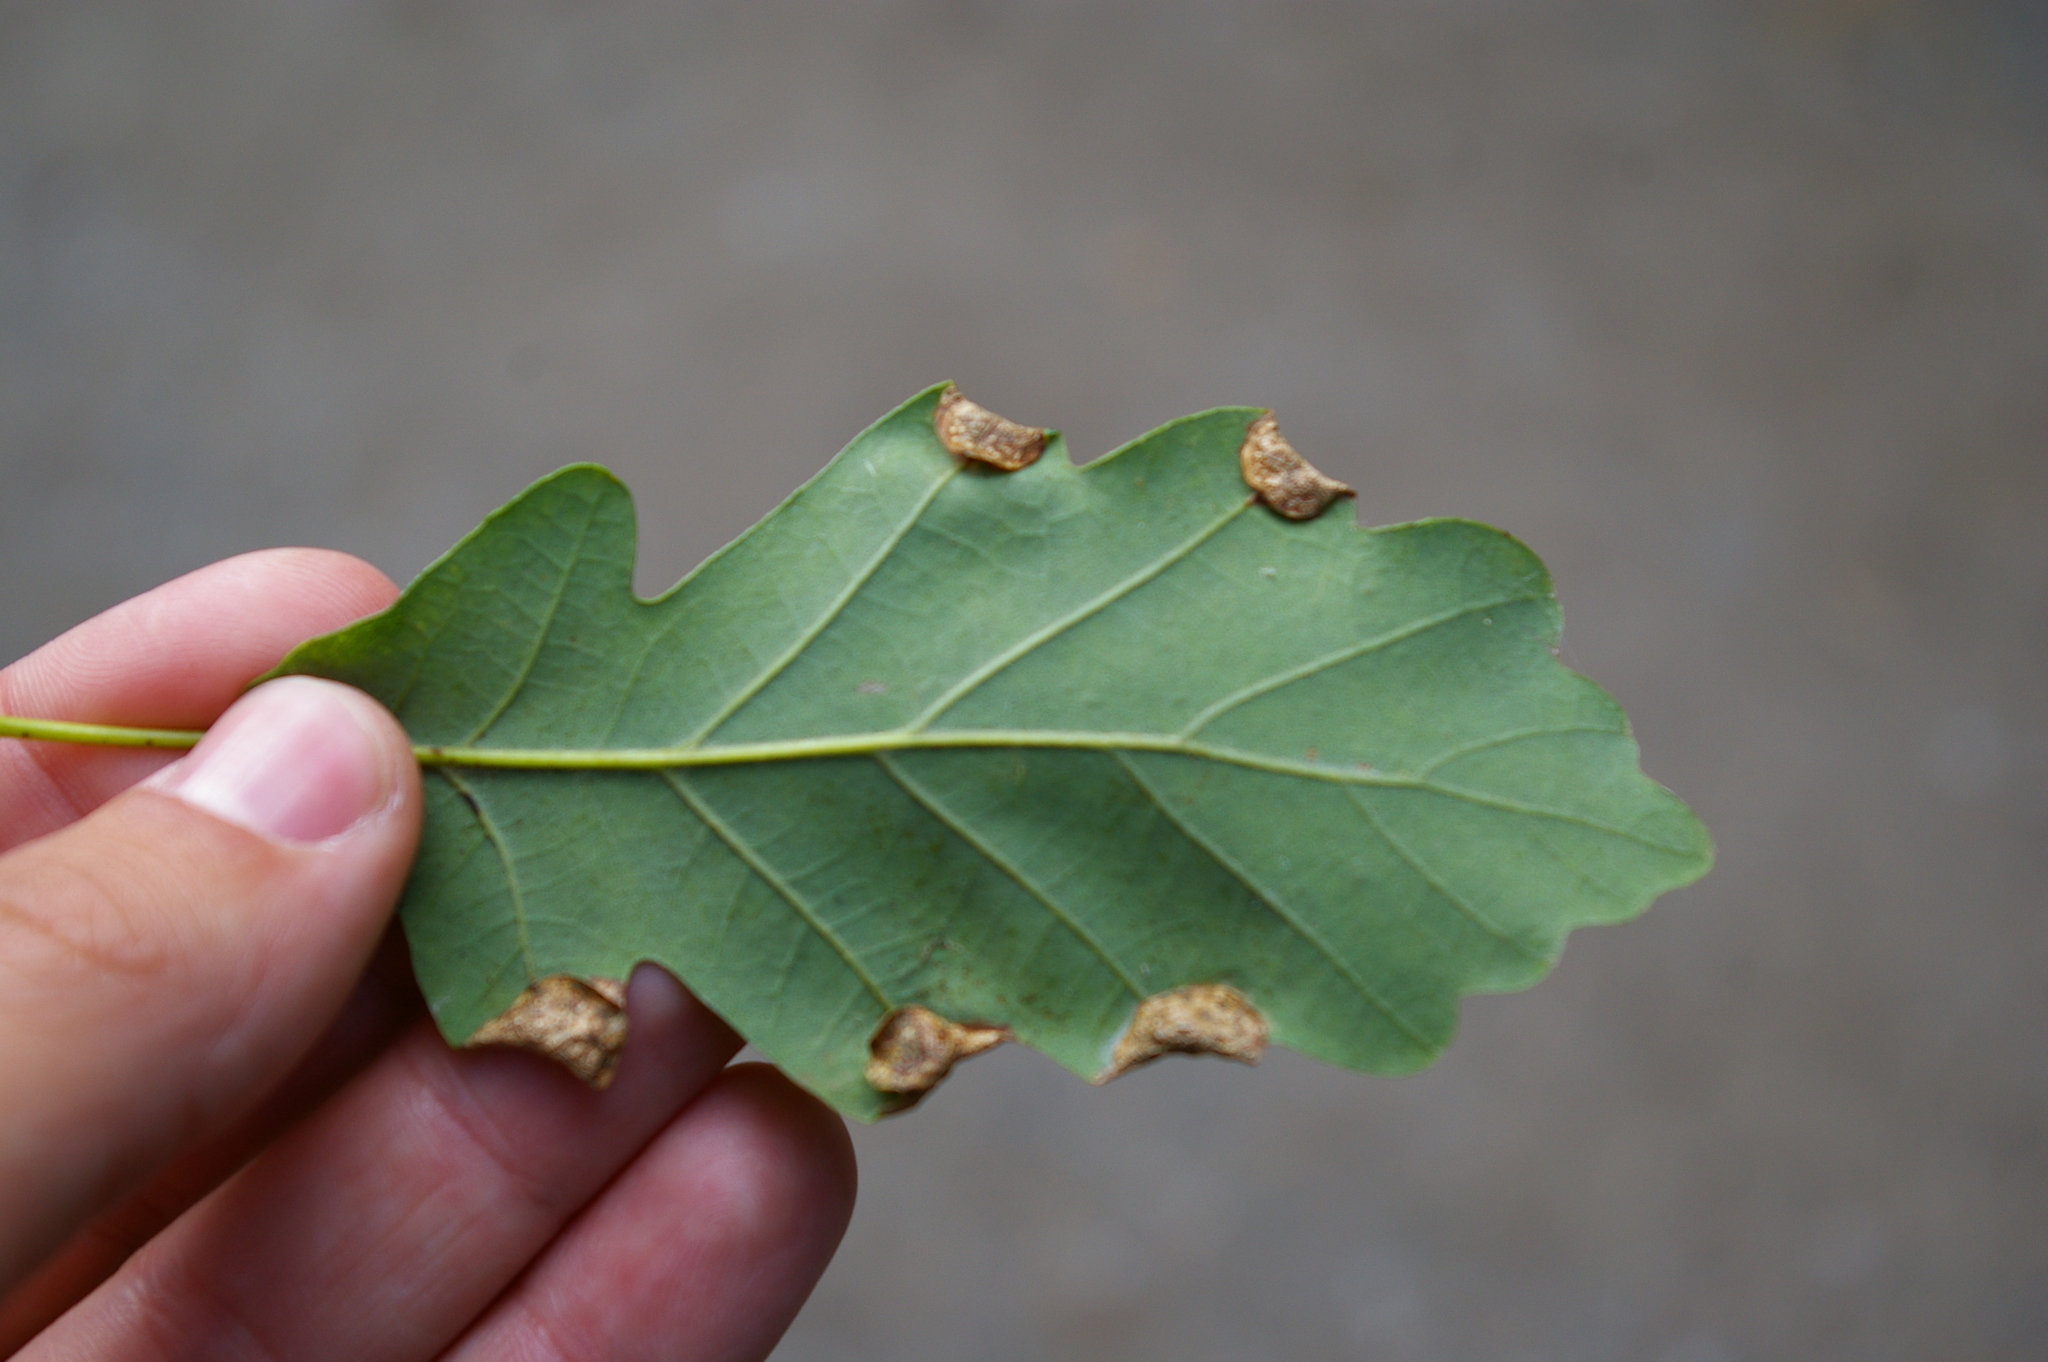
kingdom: Animalia
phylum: Arthropoda
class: Insecta
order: Diptera
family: Cecidomyiidae
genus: Macrodiplosis
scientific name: Macrodiplosis pustularis
